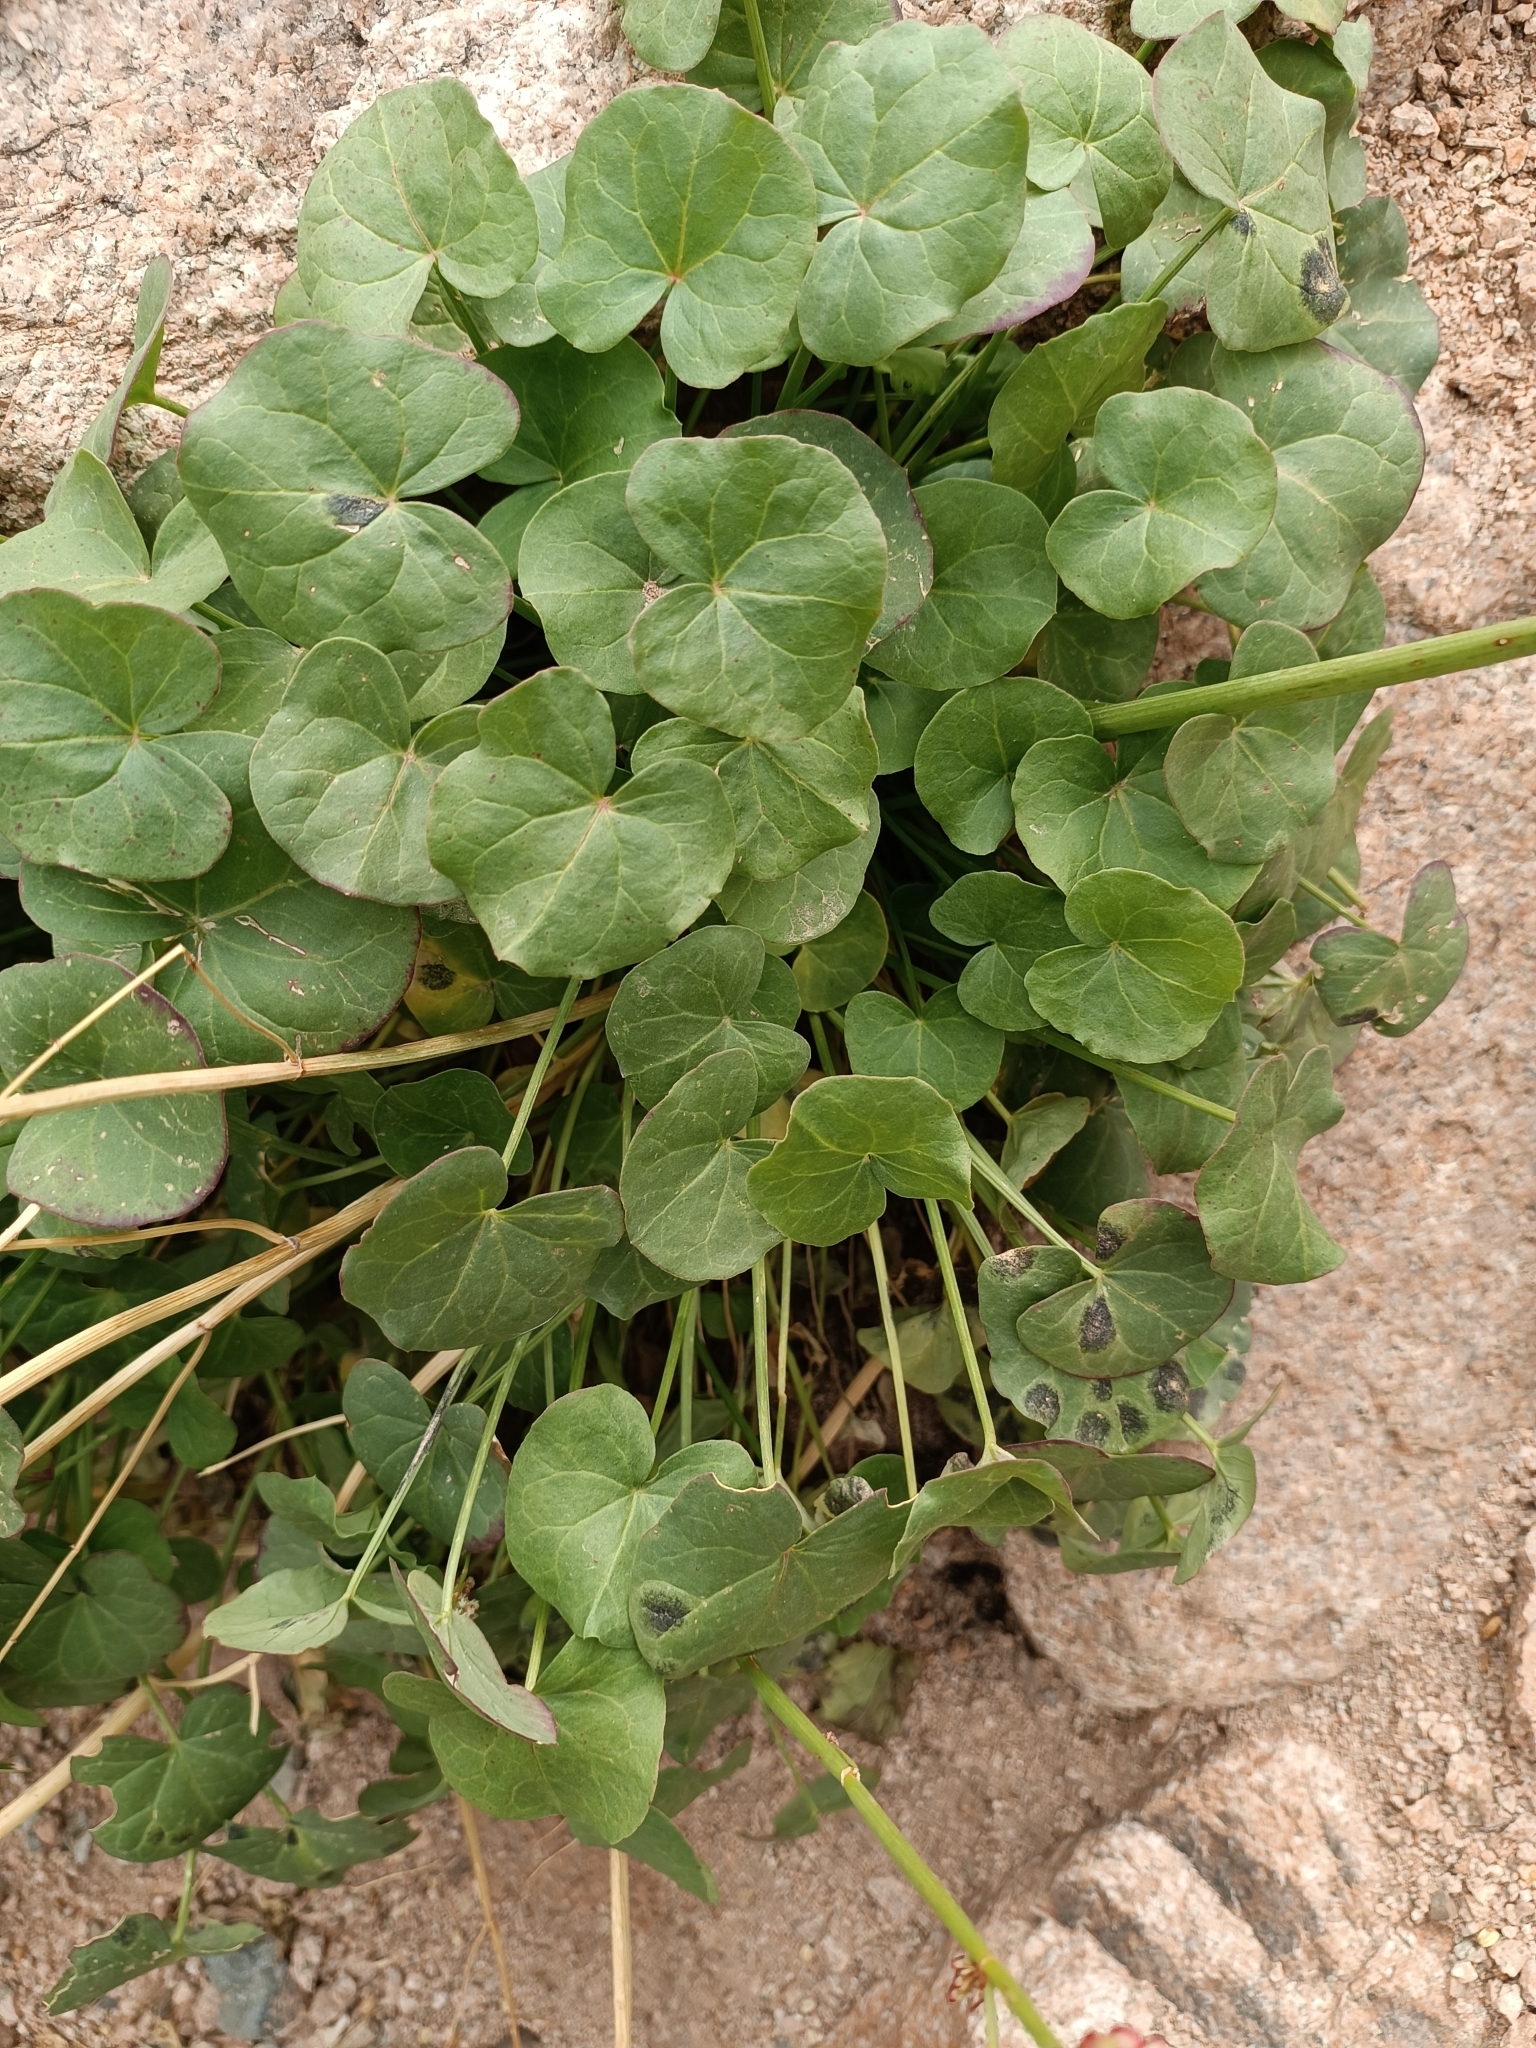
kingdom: Plantae
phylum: Tracheophyta
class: Magnoliopsida
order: Caryophyllales
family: Polygonaceae
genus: Oxyria
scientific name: Oxyria digyna
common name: Alpine mountain-sorrel
